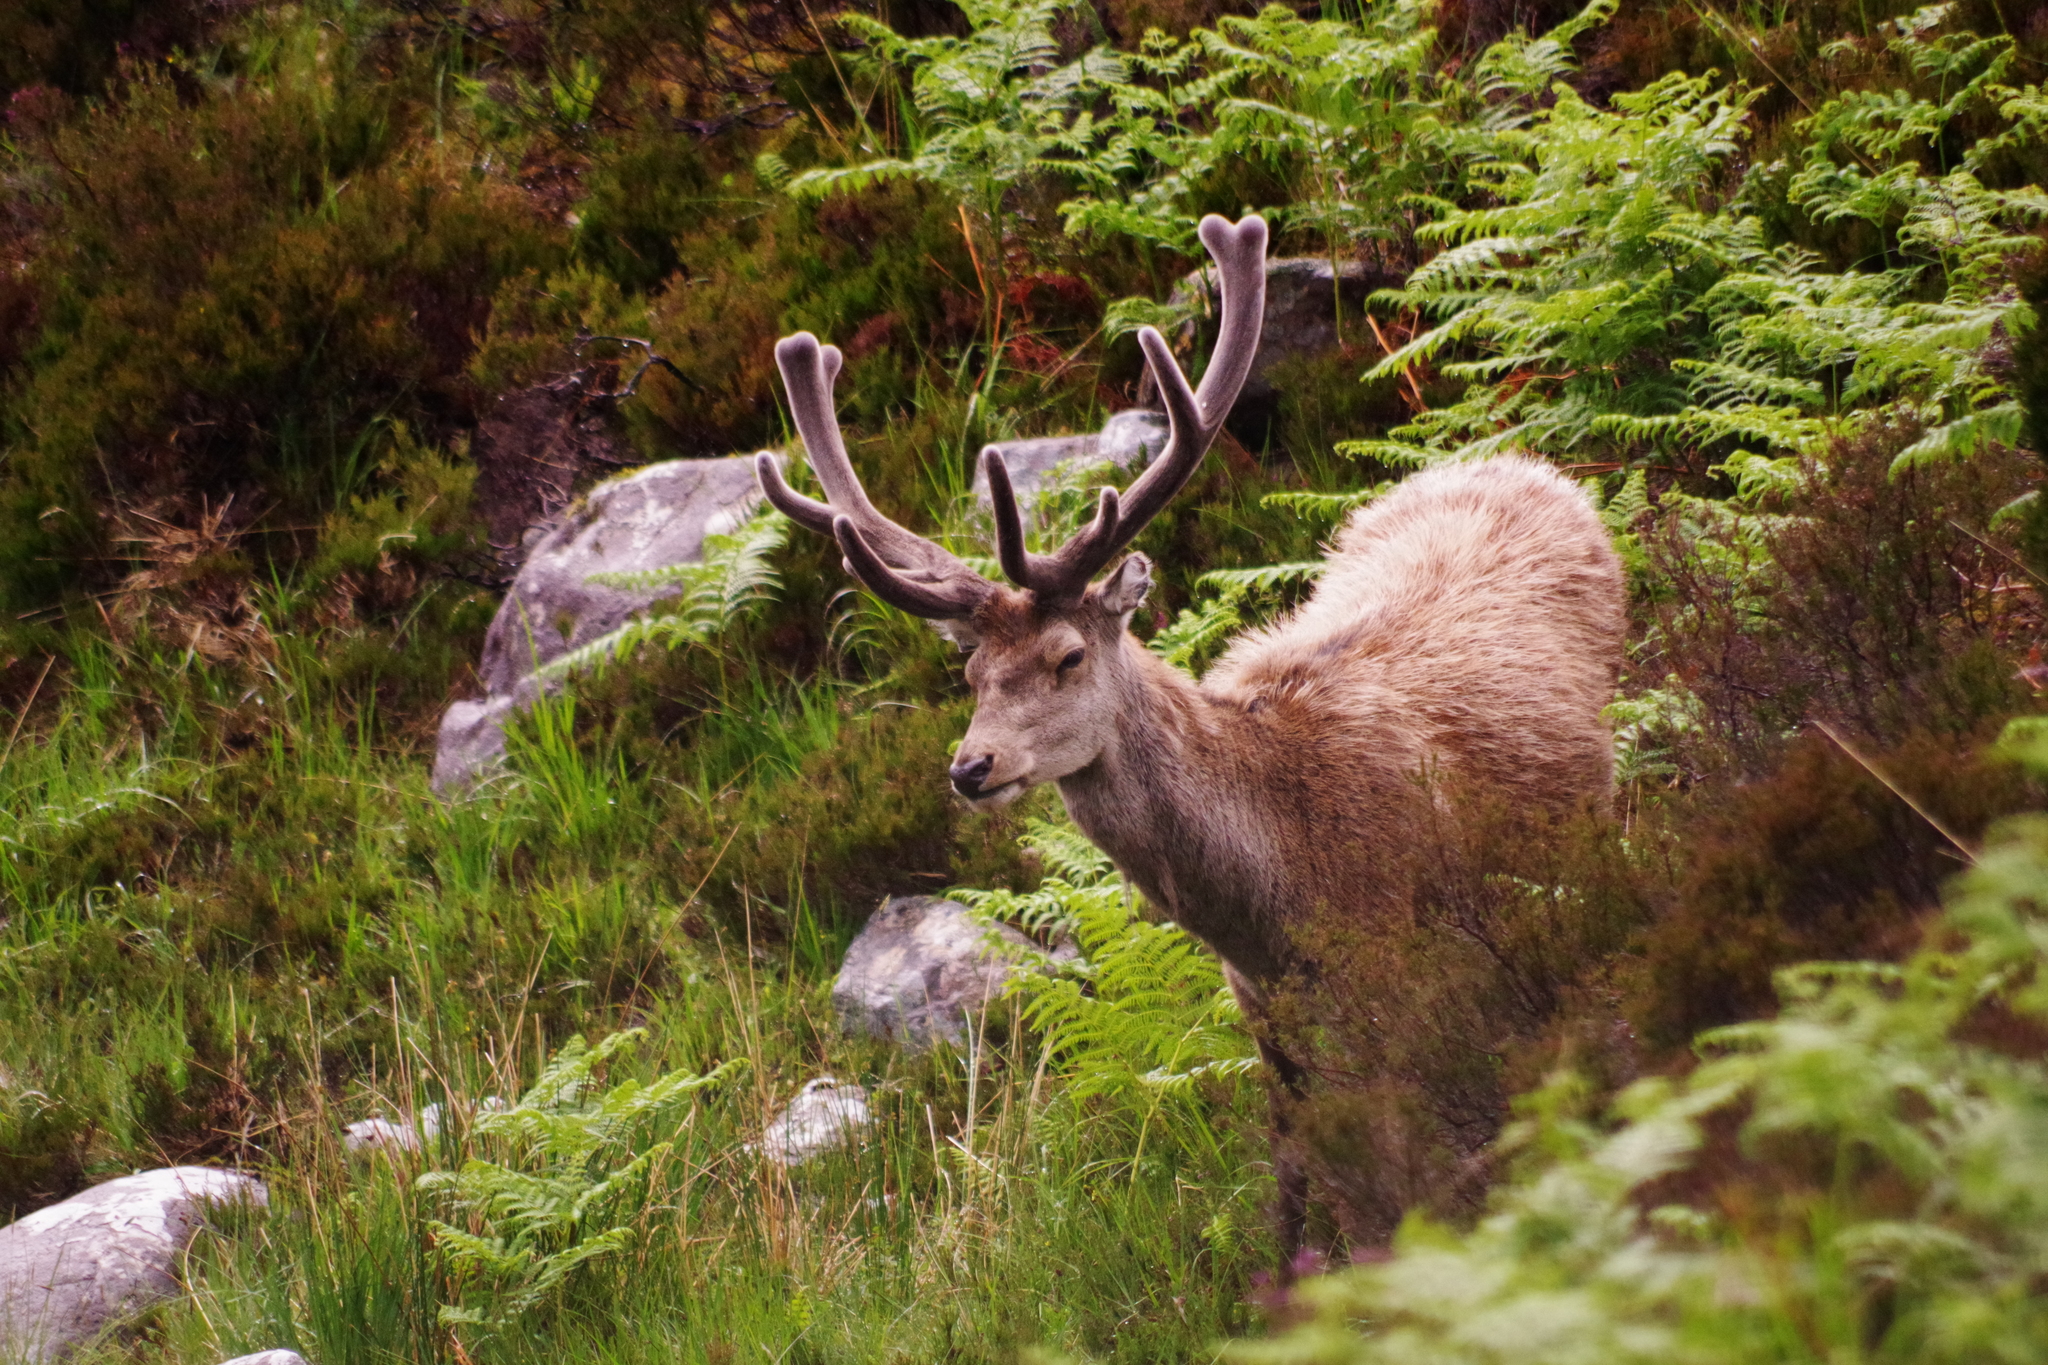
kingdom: Animalia
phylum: Chordata
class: Mammalia
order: Artiodactyla
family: Cervidae
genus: Cervus
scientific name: Cervus elaphus
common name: Red deer
